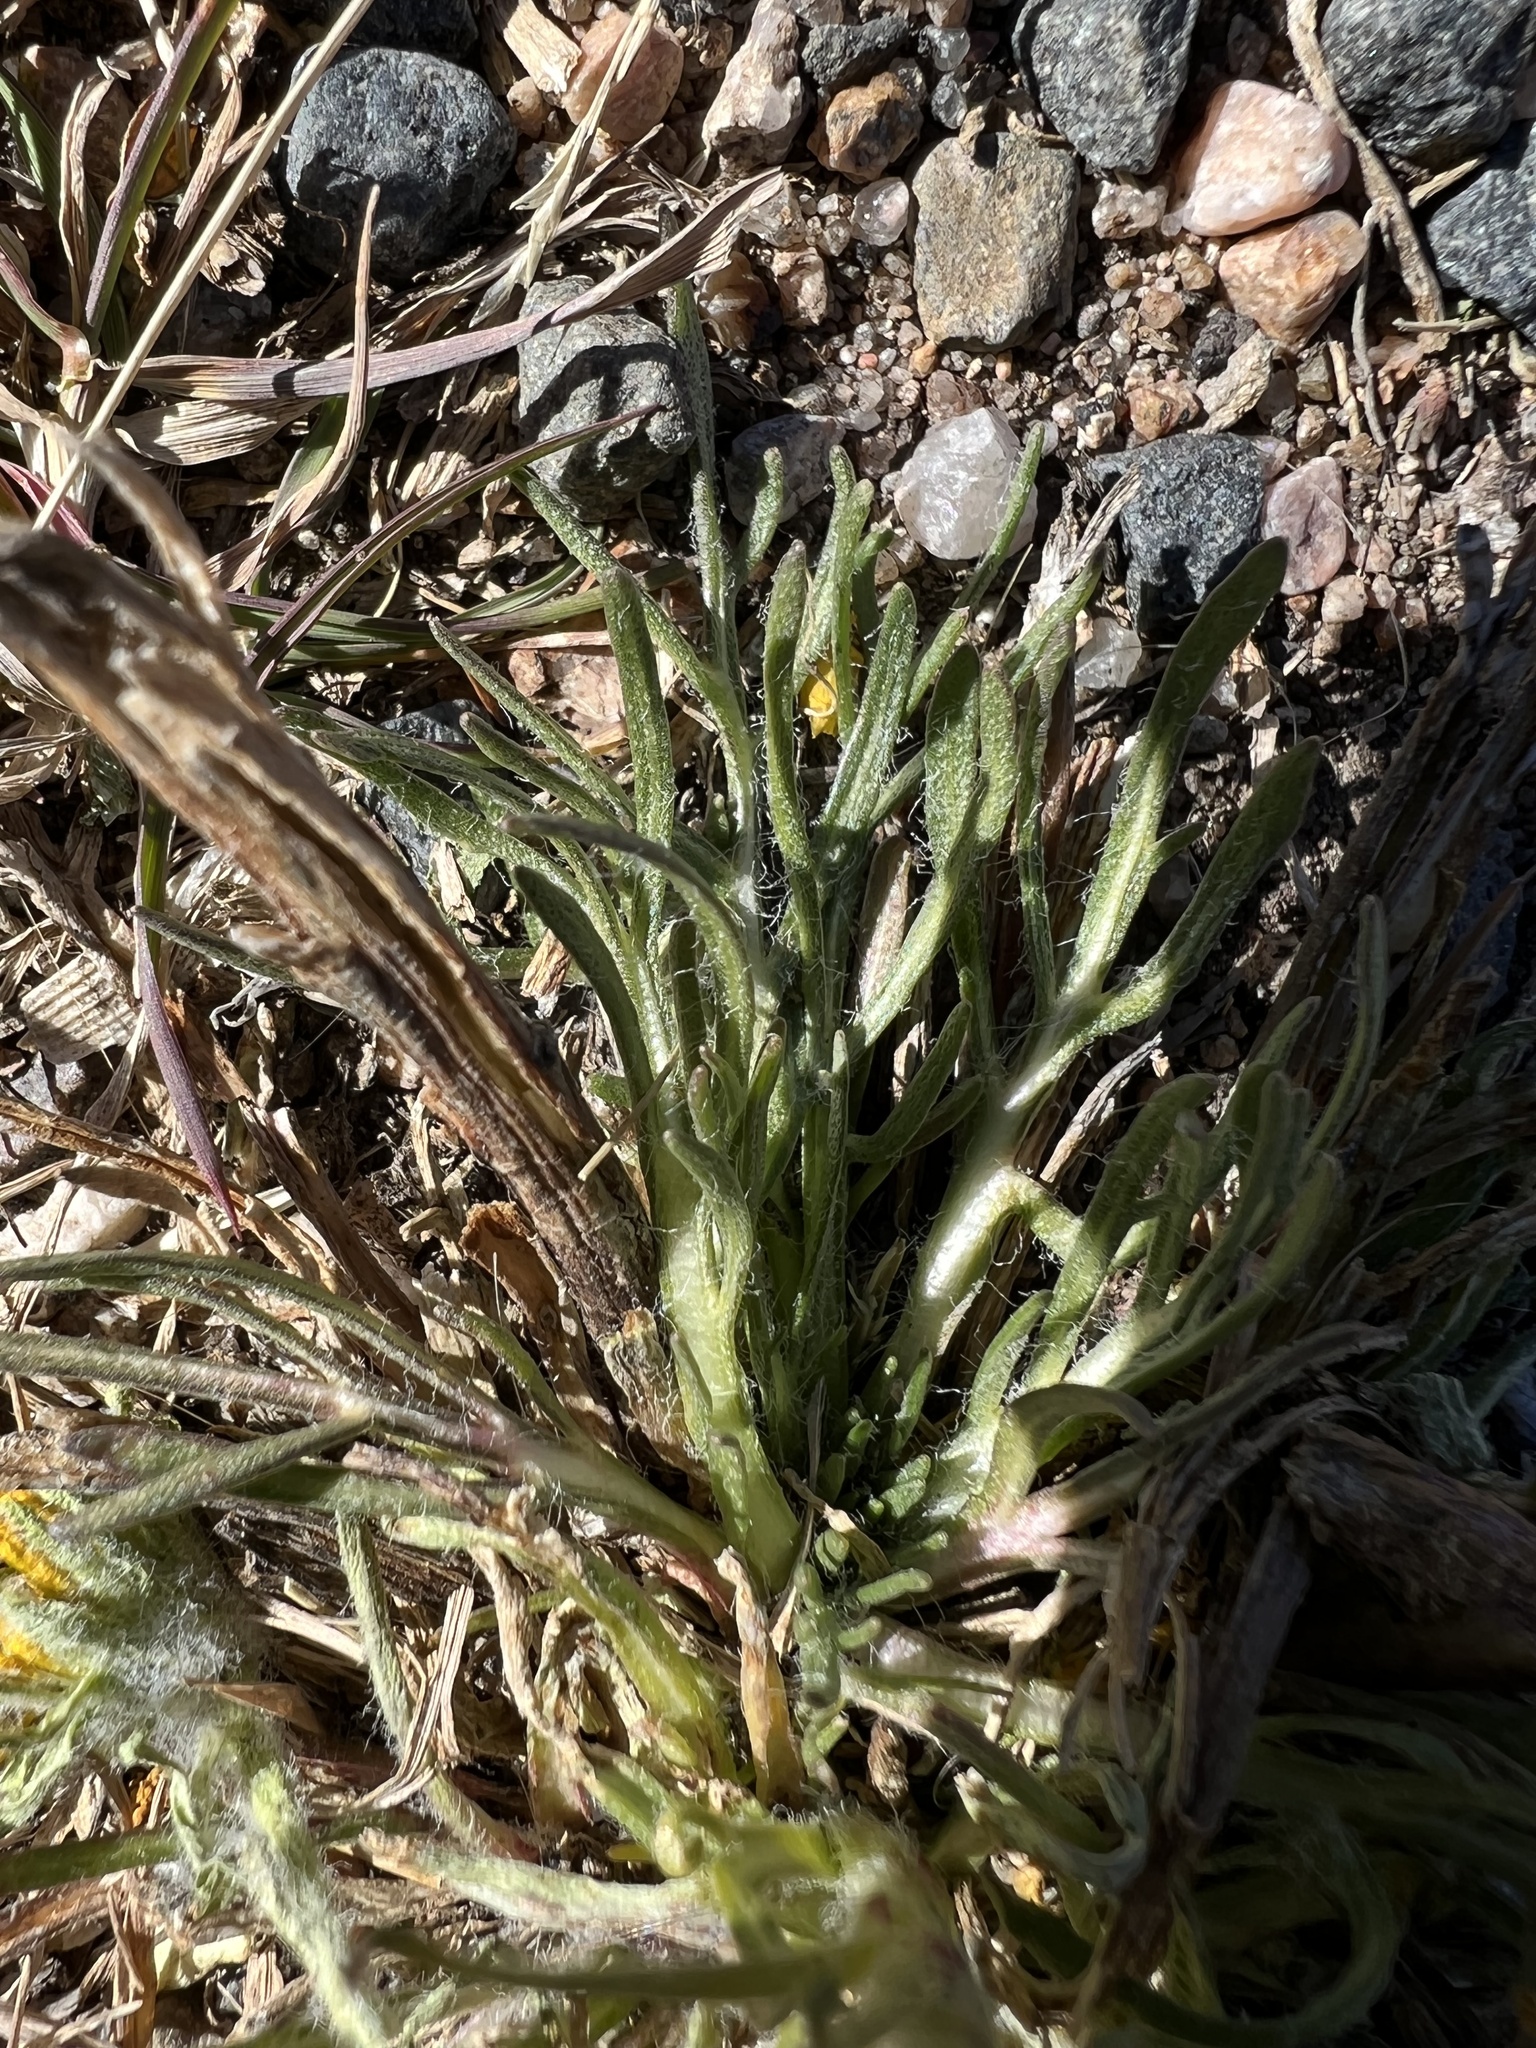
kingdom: Plantae
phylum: Tracheophyta
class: Magnoliopsida
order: Asterales
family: Asteraceae
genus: Hymenoxys
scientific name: Hymenoxys grandiflora
